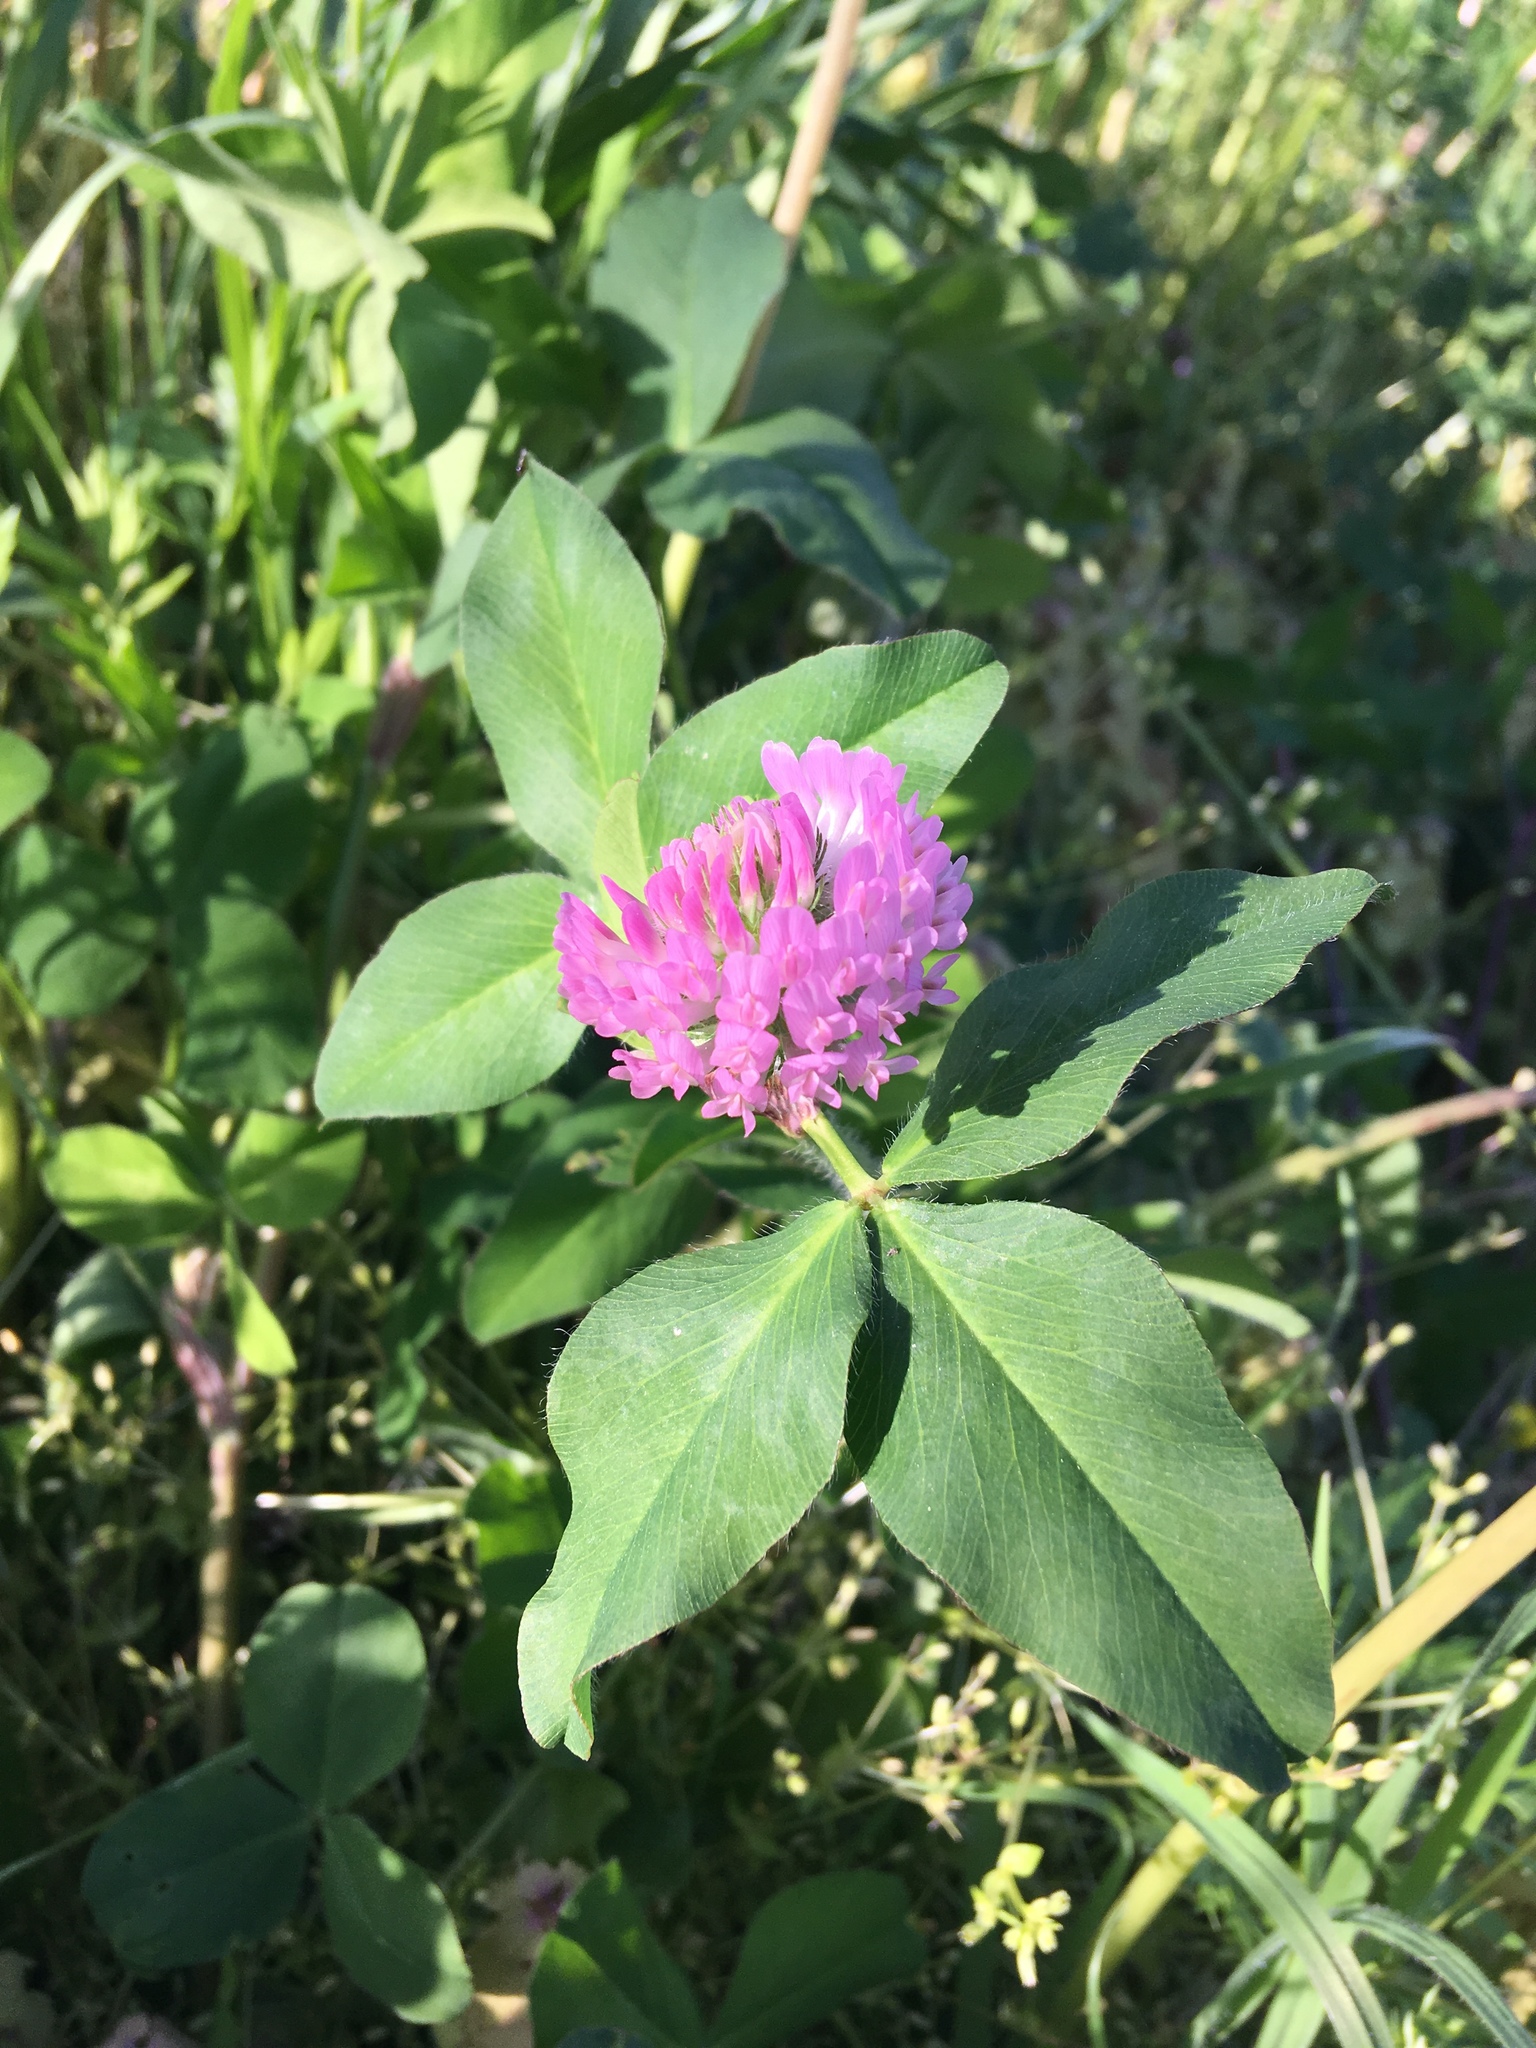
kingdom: Plantae
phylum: Tracheophyta
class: Magnoliopsida
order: Fabales
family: Fabaceae
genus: Trifolium
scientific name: Trifolium pratense
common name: Red clover
